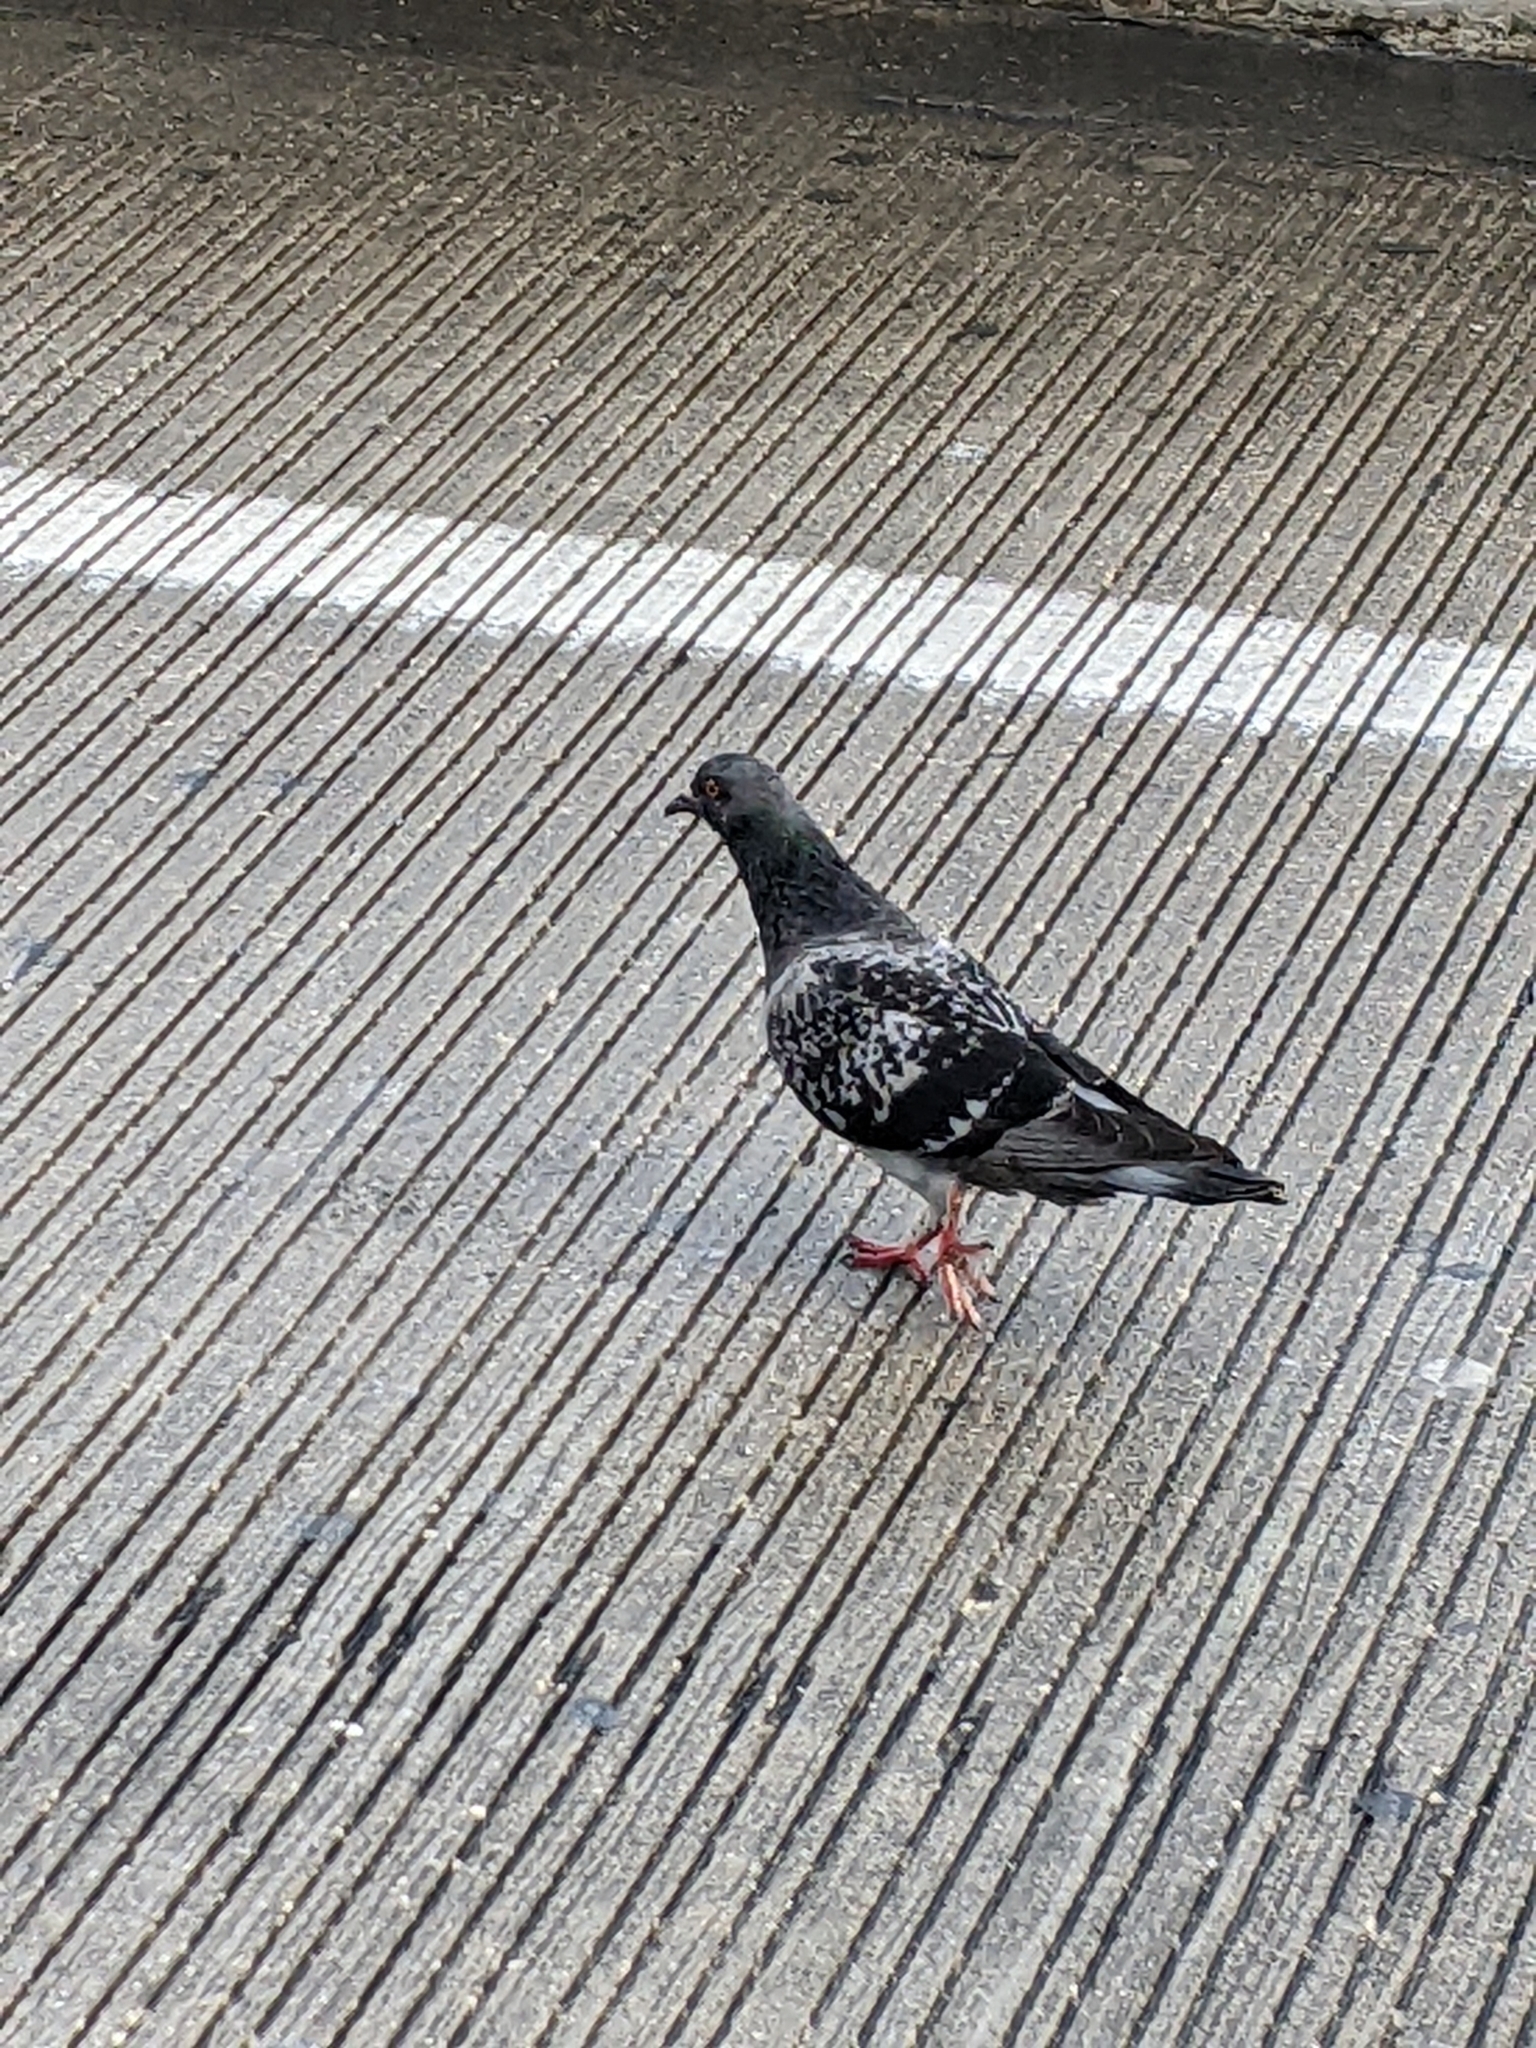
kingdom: Animalia
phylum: Chordata
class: Aves
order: Columbiformes
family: Columbidae
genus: Columba
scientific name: Columba livia
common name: Rock pigeon
